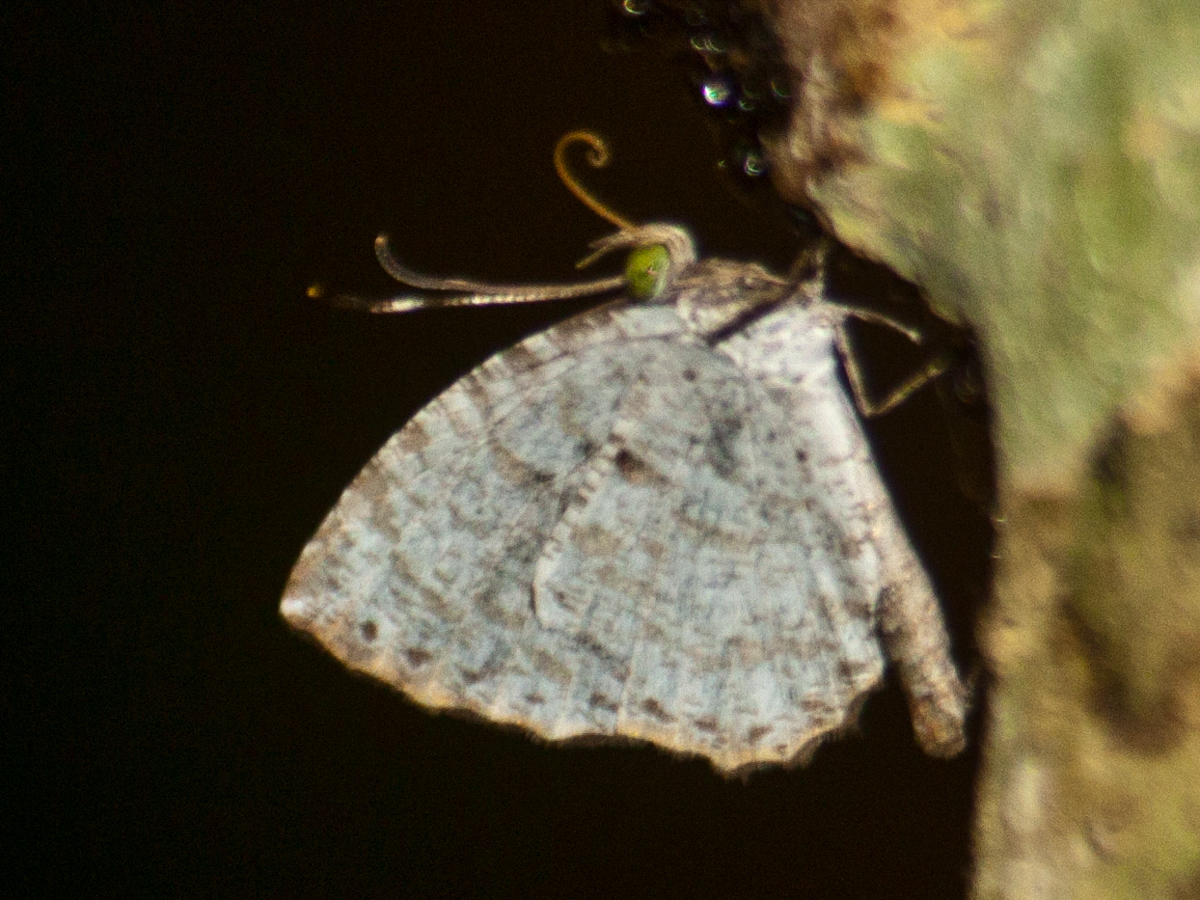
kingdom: Animalia
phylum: Arthropoda
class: Insecta
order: Lepidoptera
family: Lycaenidae
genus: Allotinus
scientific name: Allotinus substrigosa
